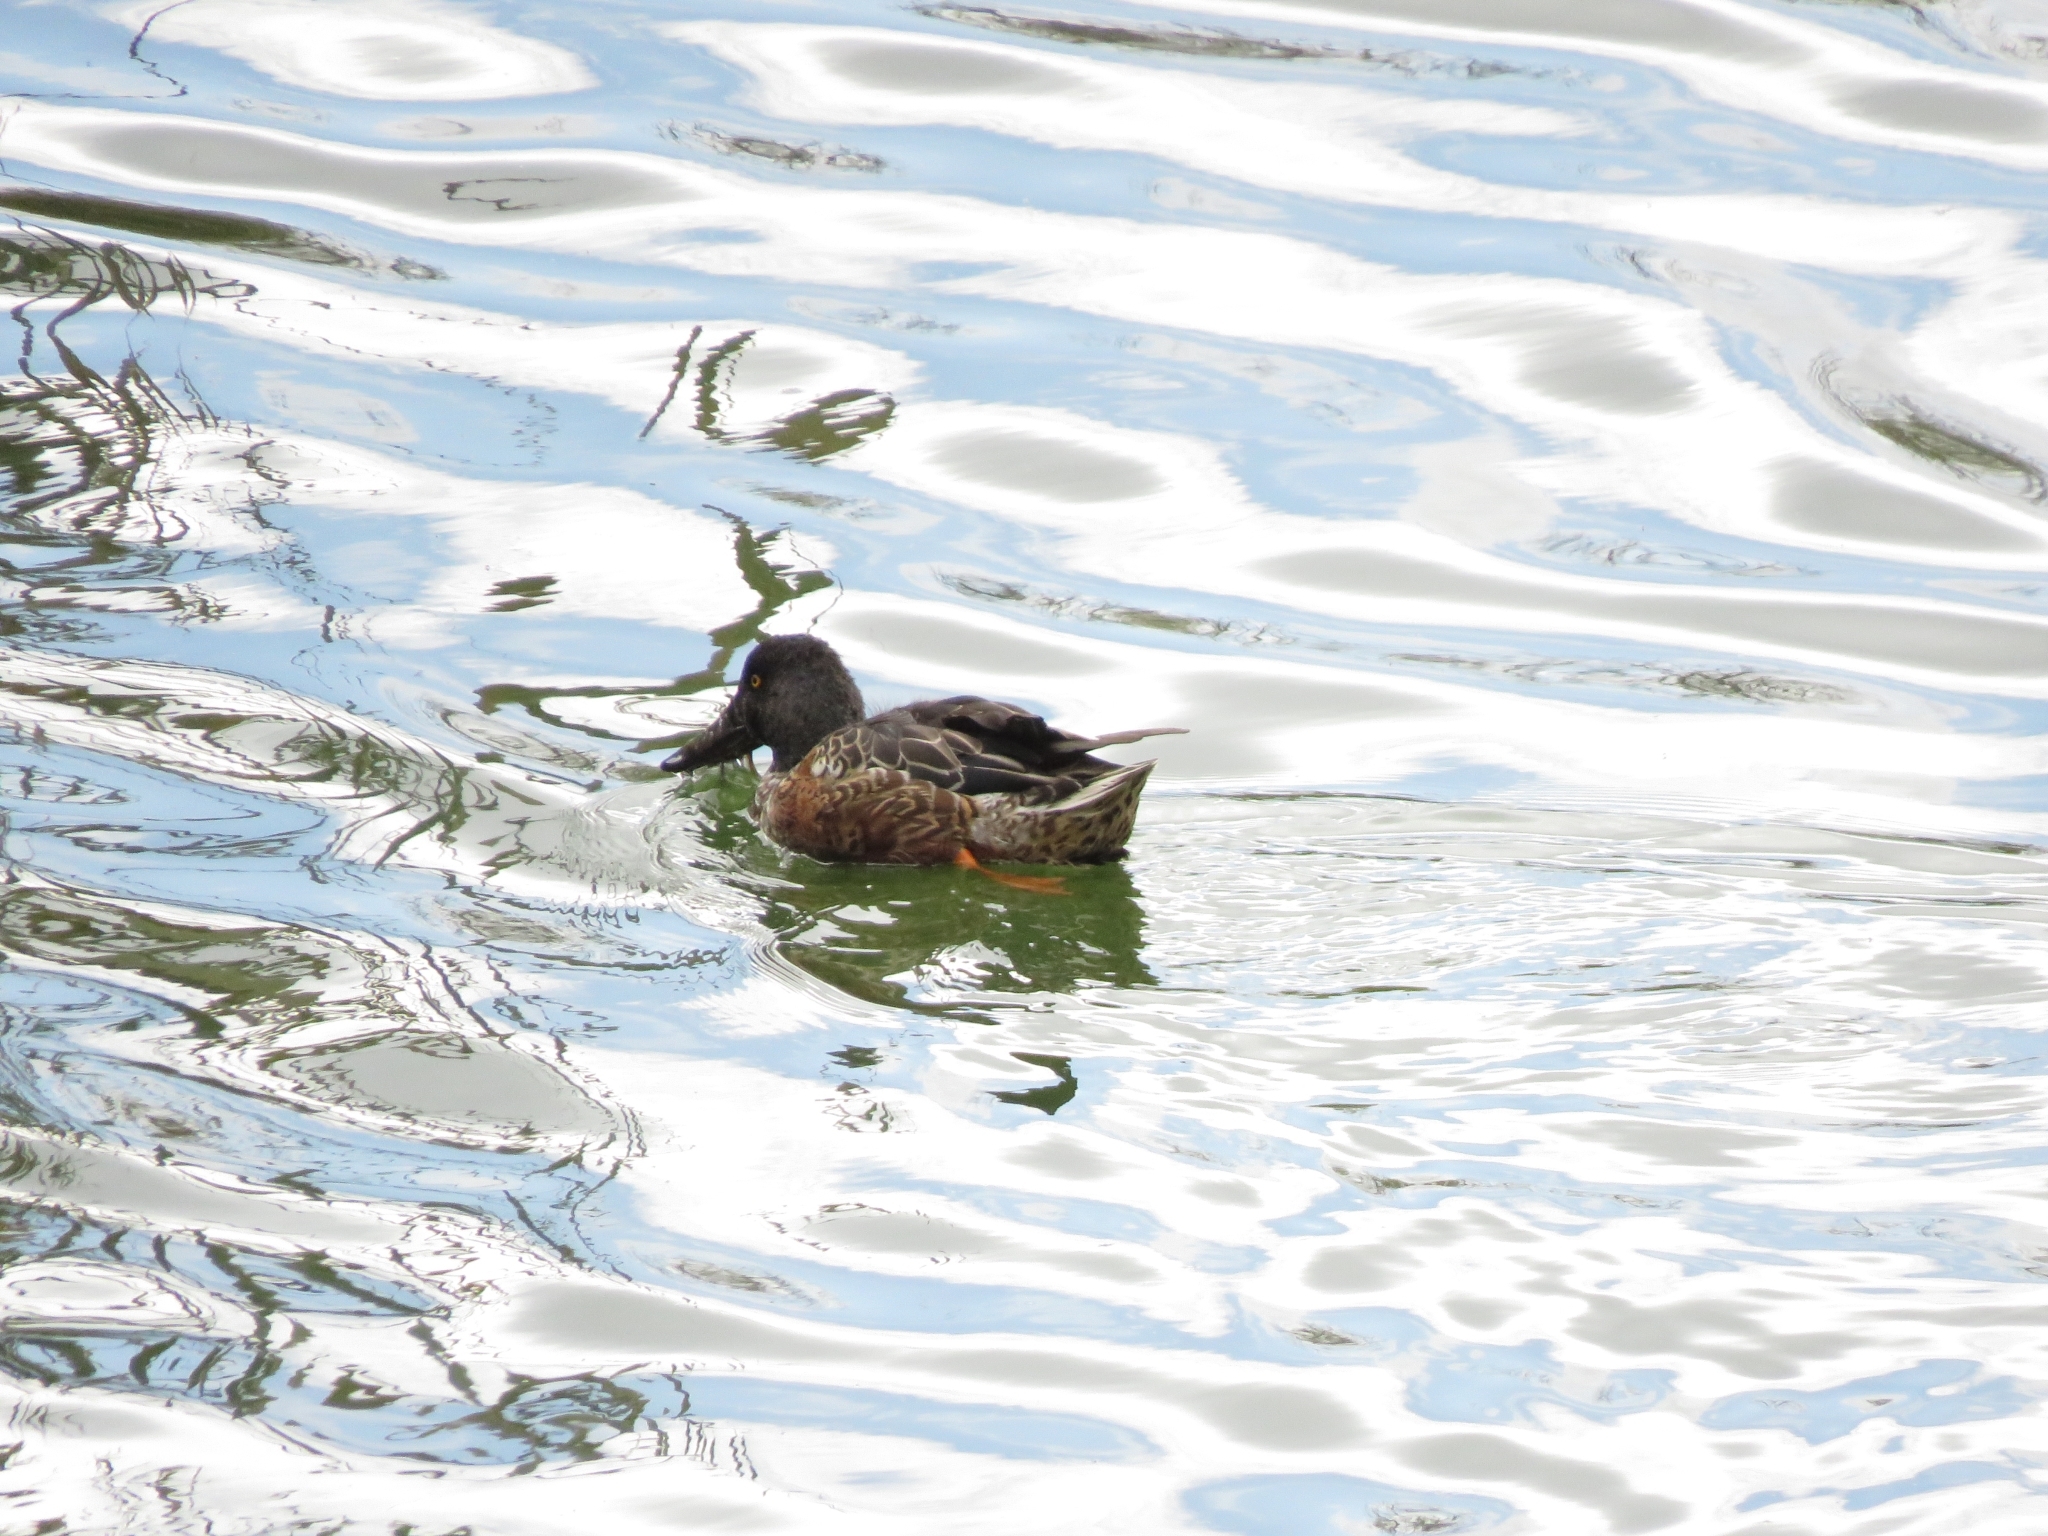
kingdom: Animalia
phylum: Chordata
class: Aves
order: Anseriformes
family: Anatidae
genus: Spatula
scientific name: Spatula clypeata
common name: Northern shoveler
